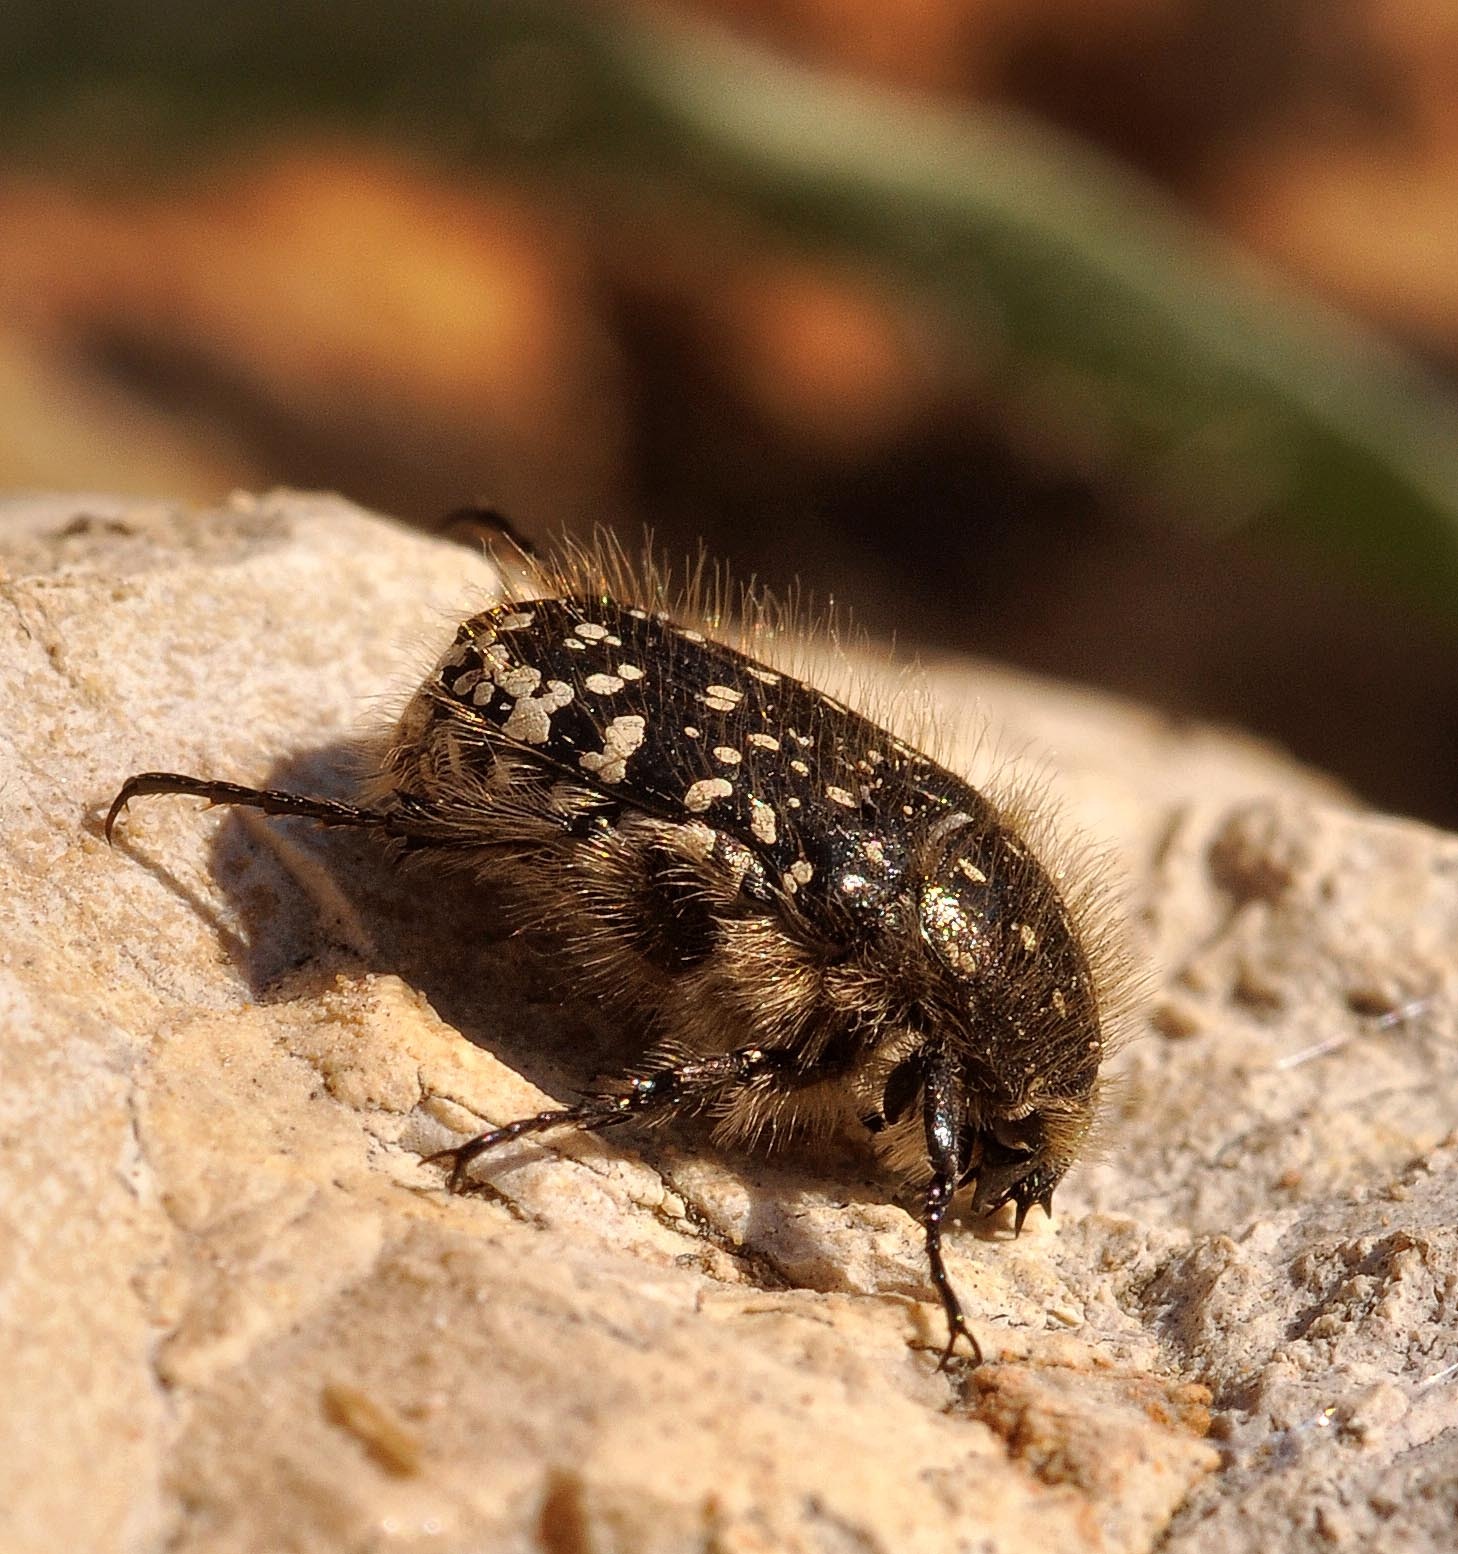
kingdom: Animalia
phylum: Arthropoda
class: Insecta
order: Coleoptera
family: Scarabaeidae
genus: Oxythyrea
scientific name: Oxythyrea funesta
